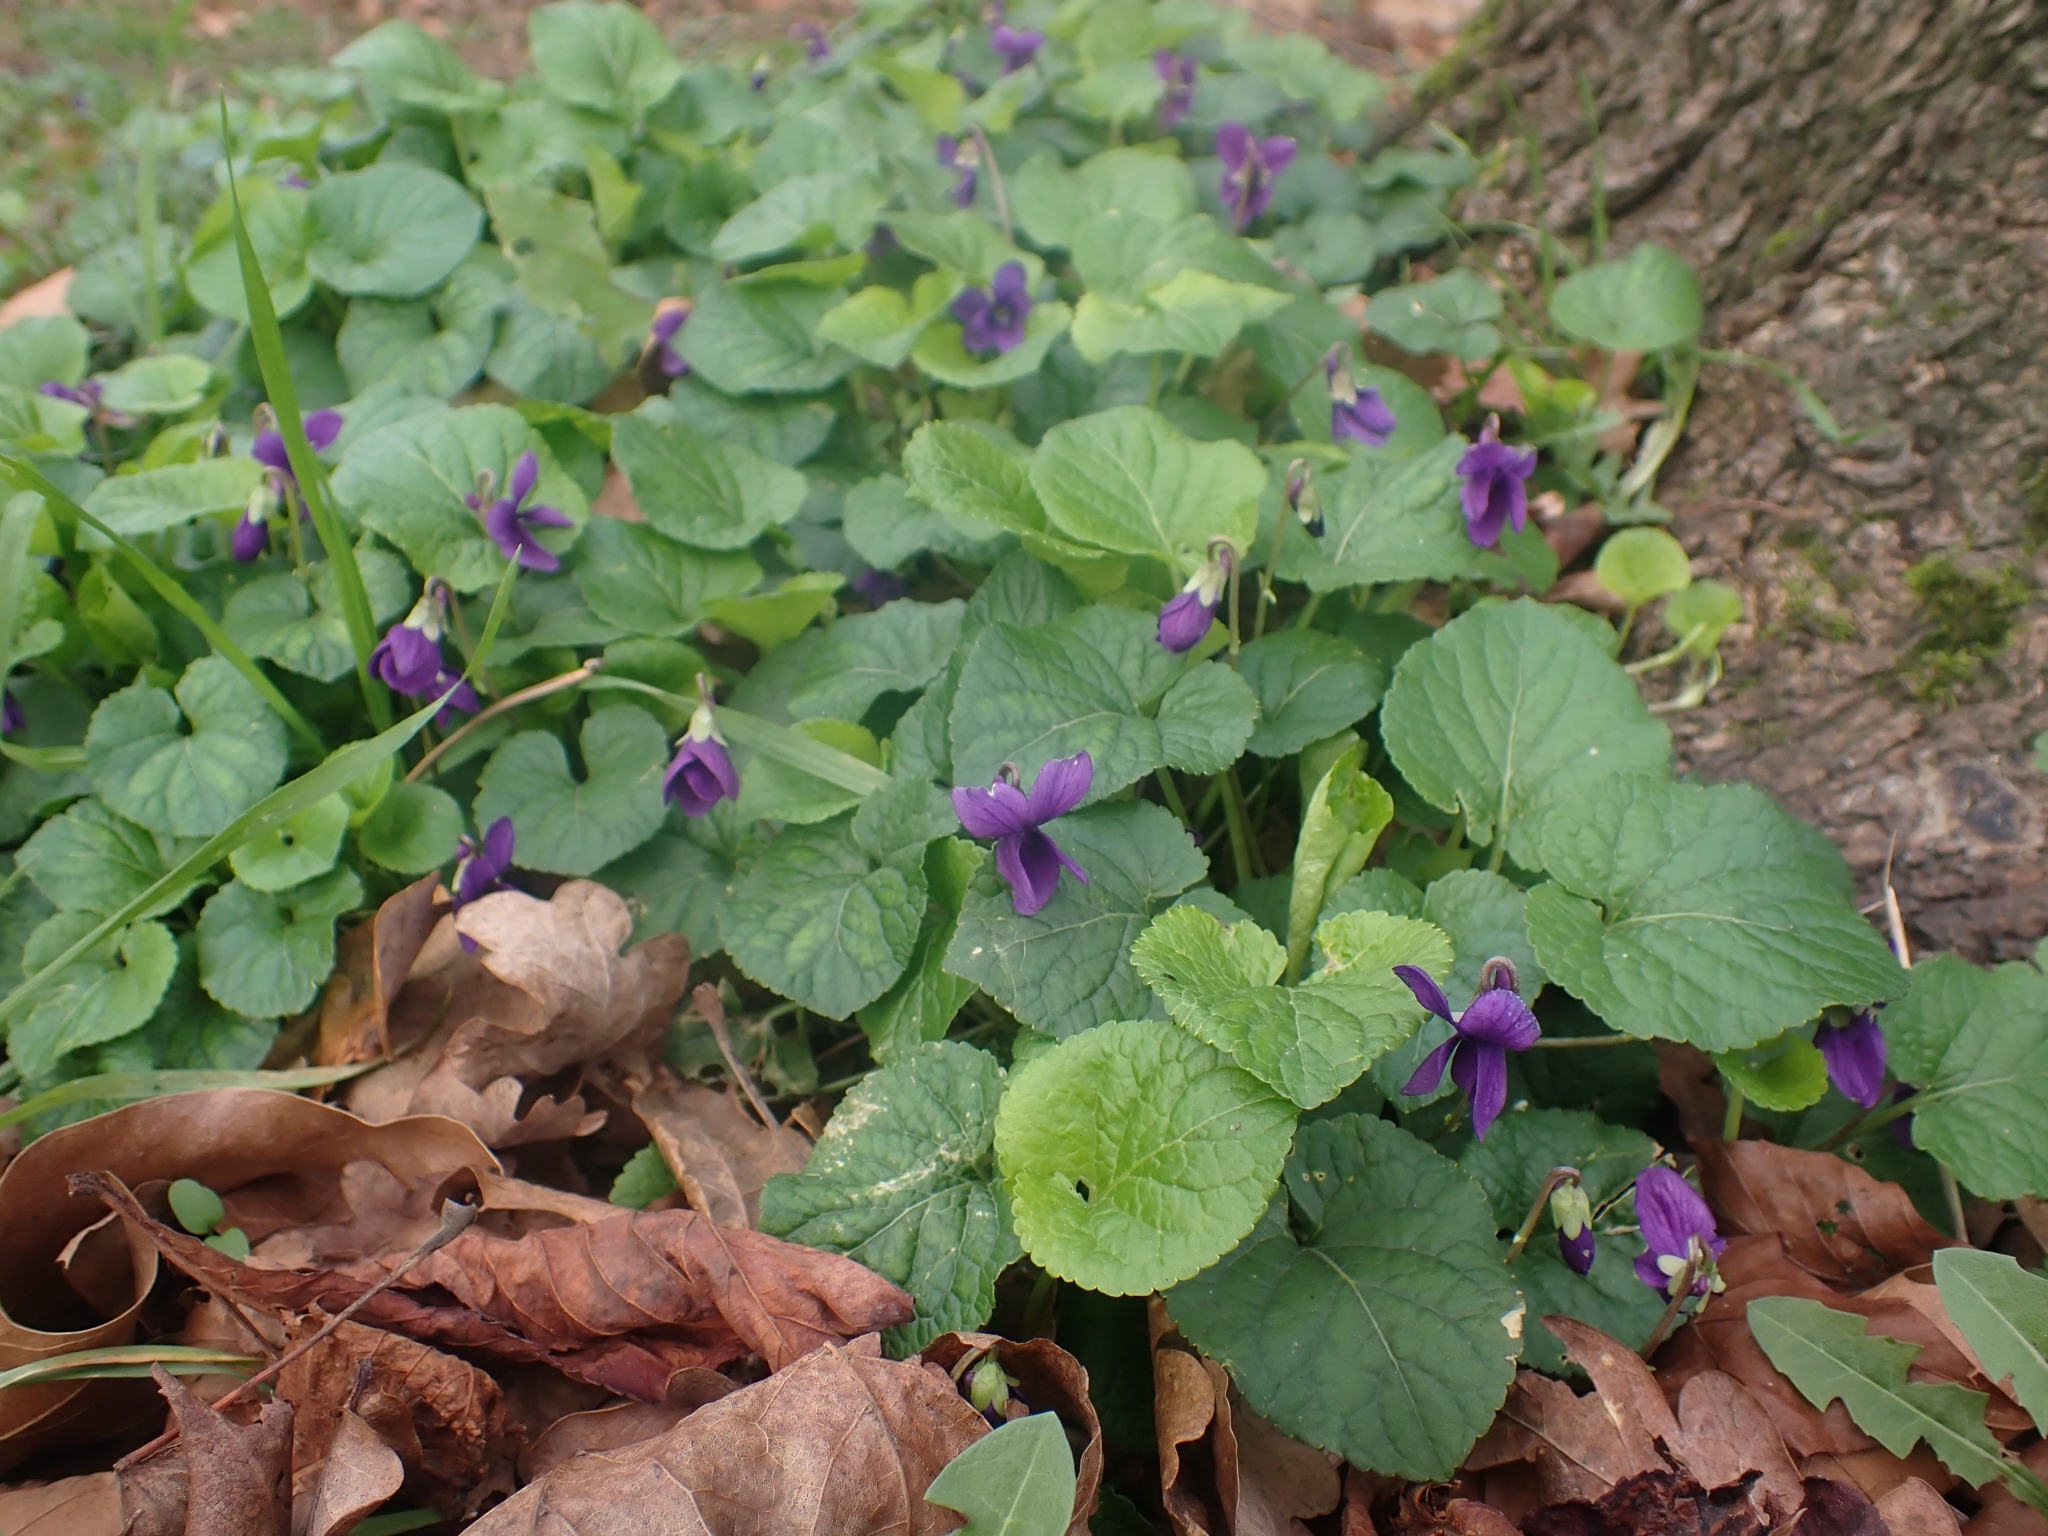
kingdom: Plantae
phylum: Tracheophyta
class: Magnoliopsida
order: Malpighiales
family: Violaceae
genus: Viola
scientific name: Viola odorata
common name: Sweet violet
